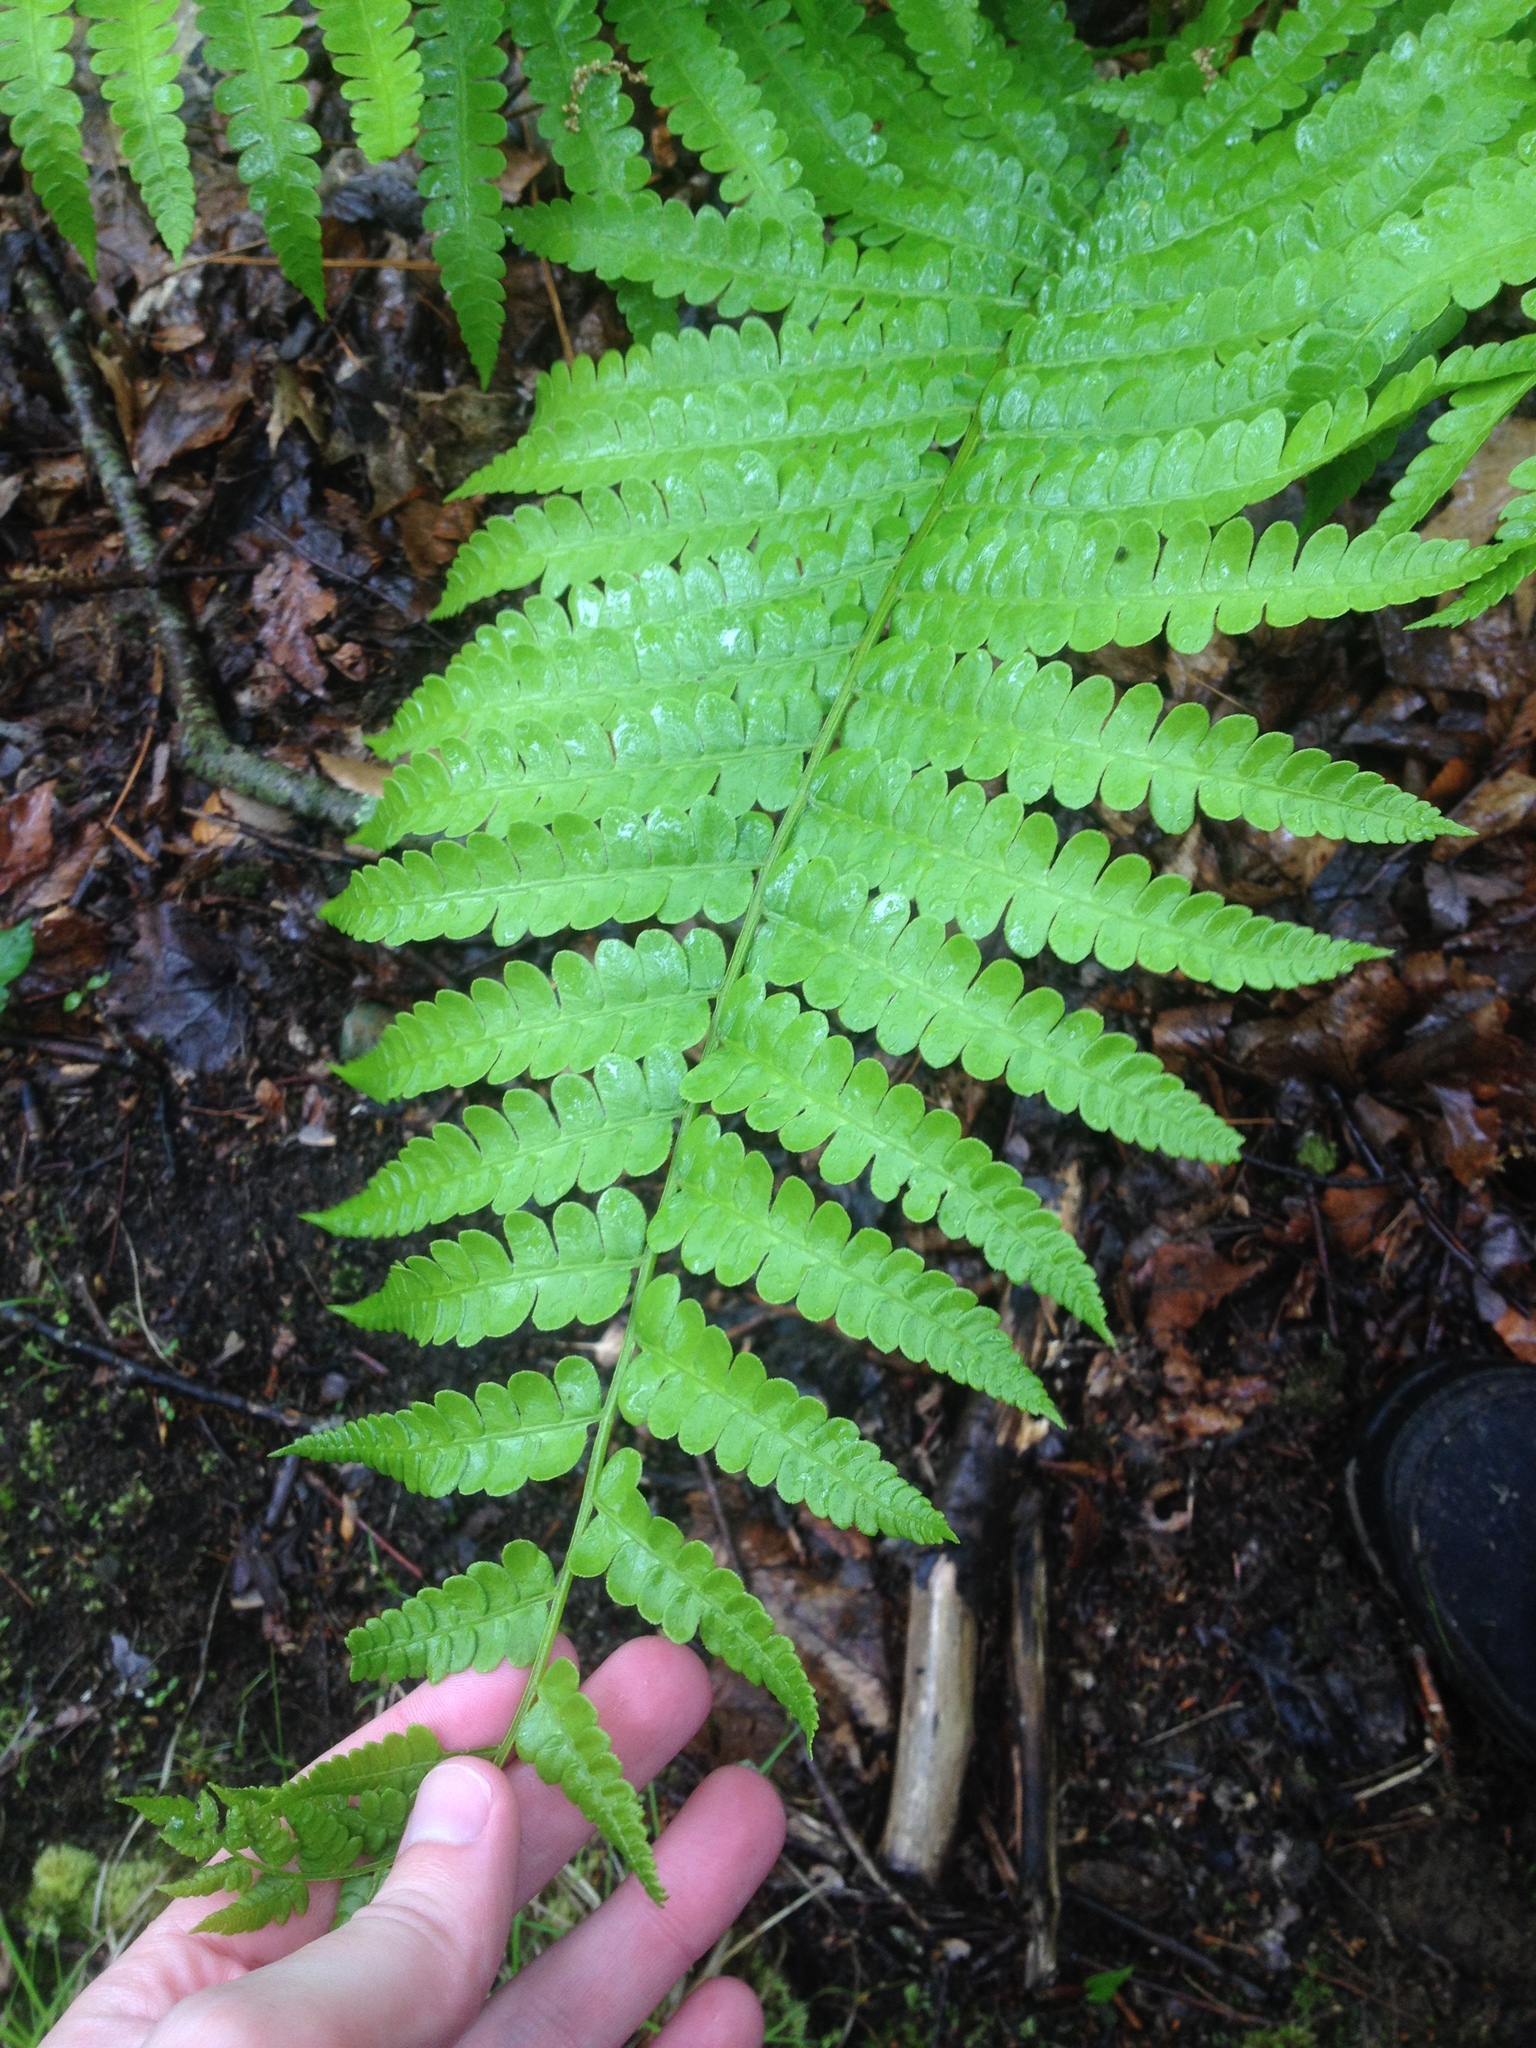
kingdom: Plantae
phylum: Tracheophyta
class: Polypodiopsida
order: Osmundales
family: Osmundaceae
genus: Osmundastrum
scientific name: Osmundastrum cinnamomeum
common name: Cinnamon fern
